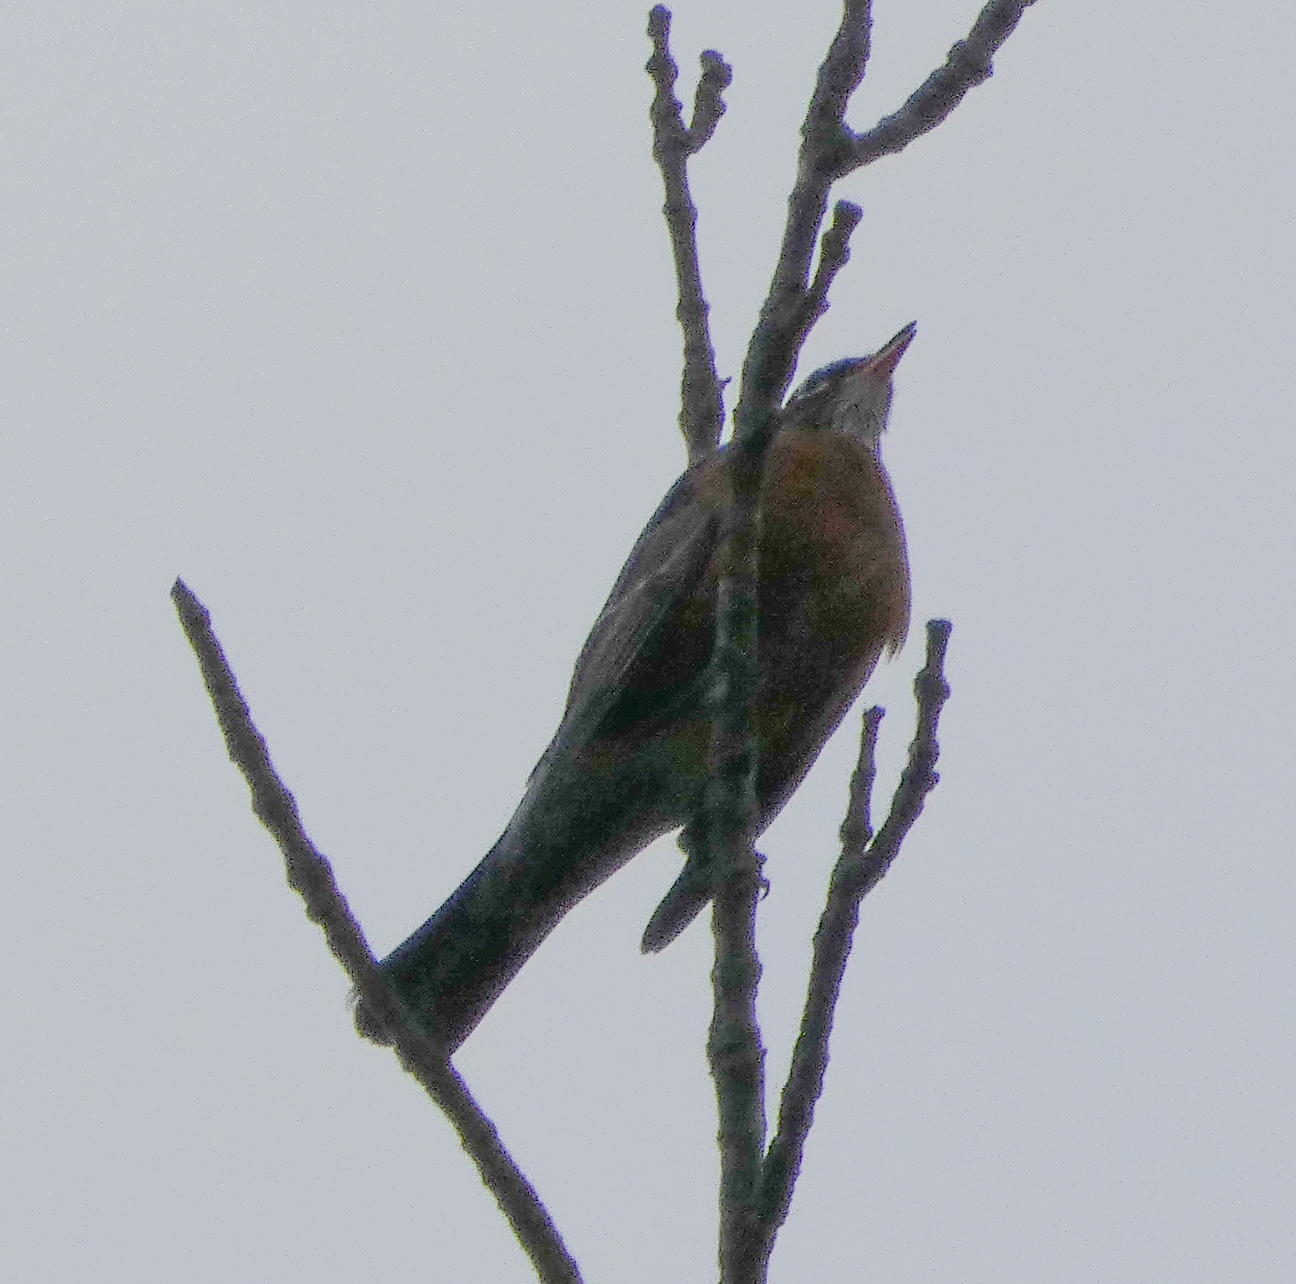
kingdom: Animalia
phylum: Chordata
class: Aves
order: Passeriformes
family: Turdidae
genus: Turdus
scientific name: Turdus migratorius
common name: American robin
